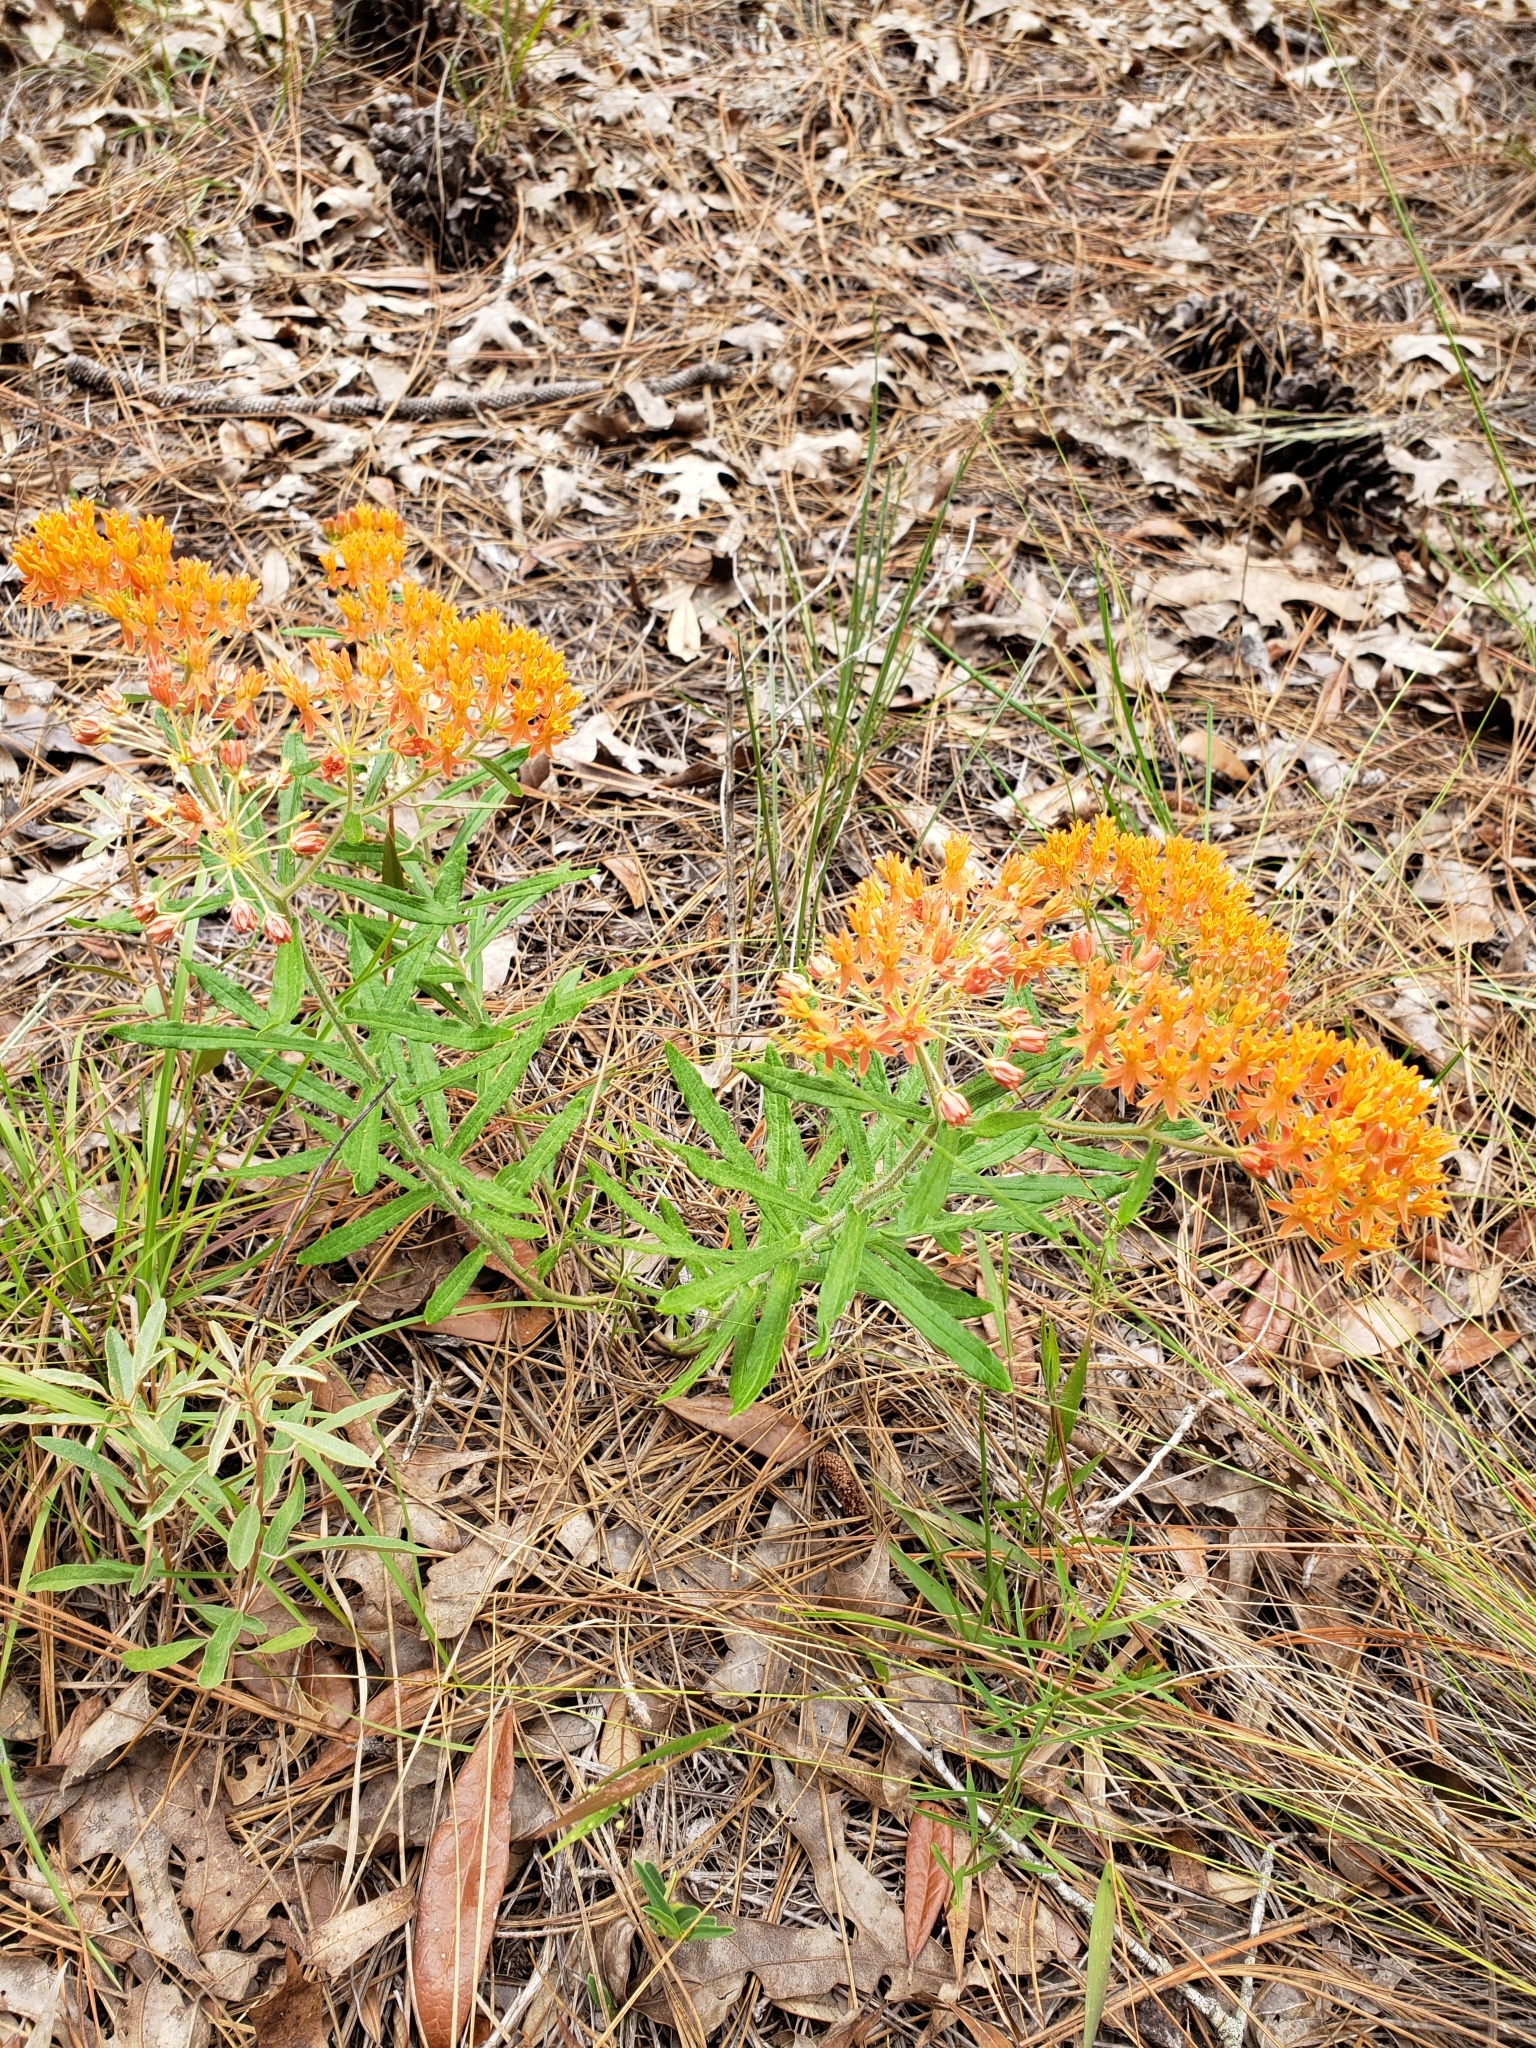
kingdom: Plantae
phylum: Tracheophyta
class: Magnoliopsida
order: Gentianales
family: Apocynaceae
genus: Asclepias
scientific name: Asclepias tuberosa
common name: Butterfly milkweed
